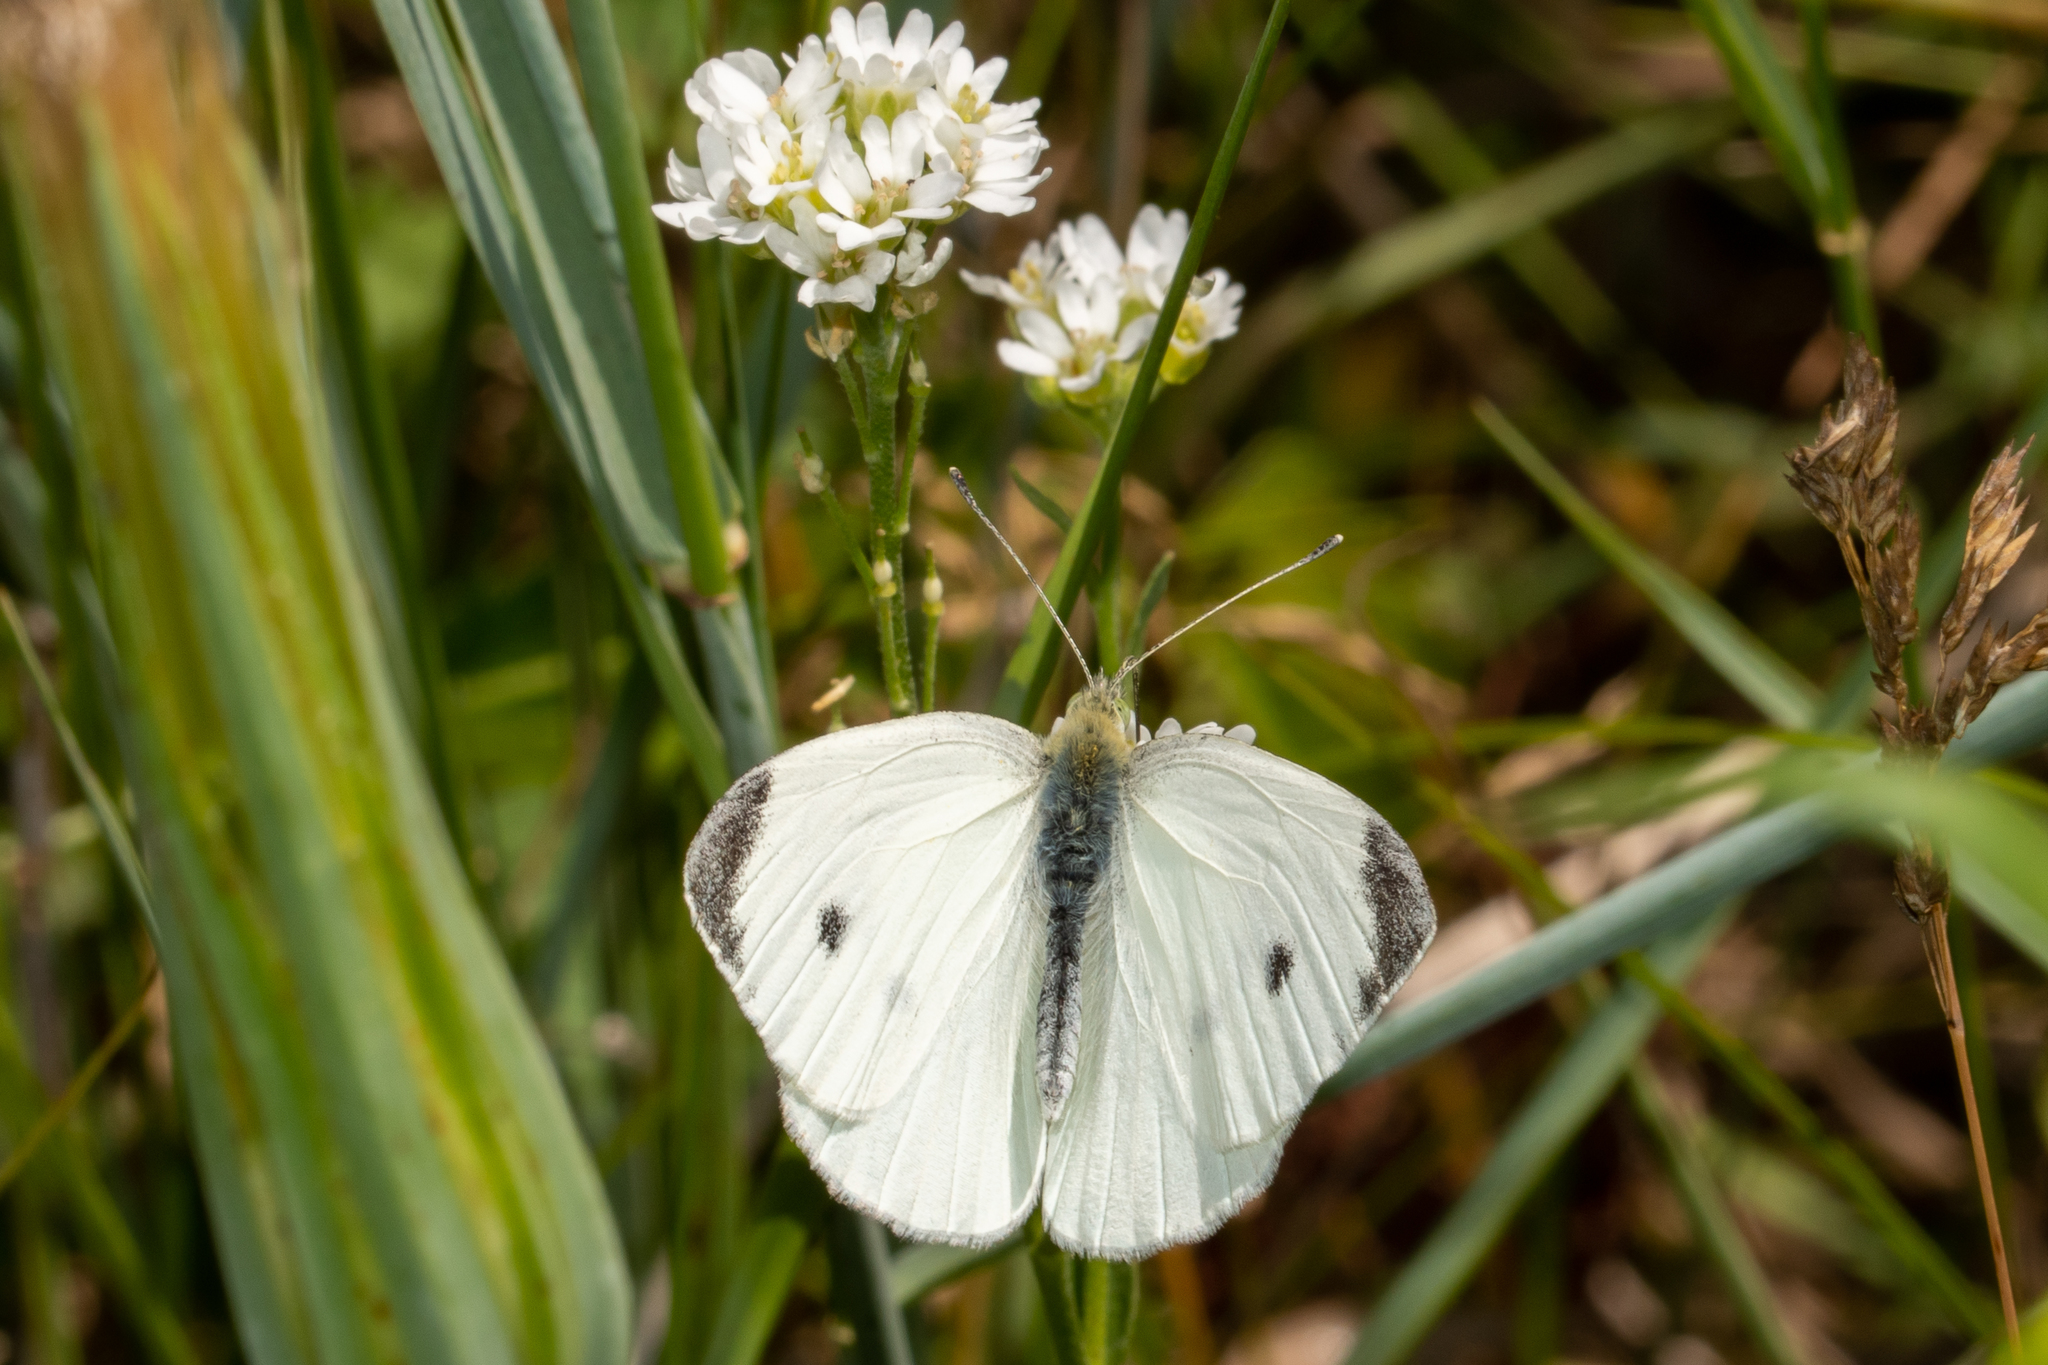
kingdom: Animalia
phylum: Arthropoda
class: Insecta
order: Lepidoptera
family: Pieridae
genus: Pieris
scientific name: Pieris rapae
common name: Small white
